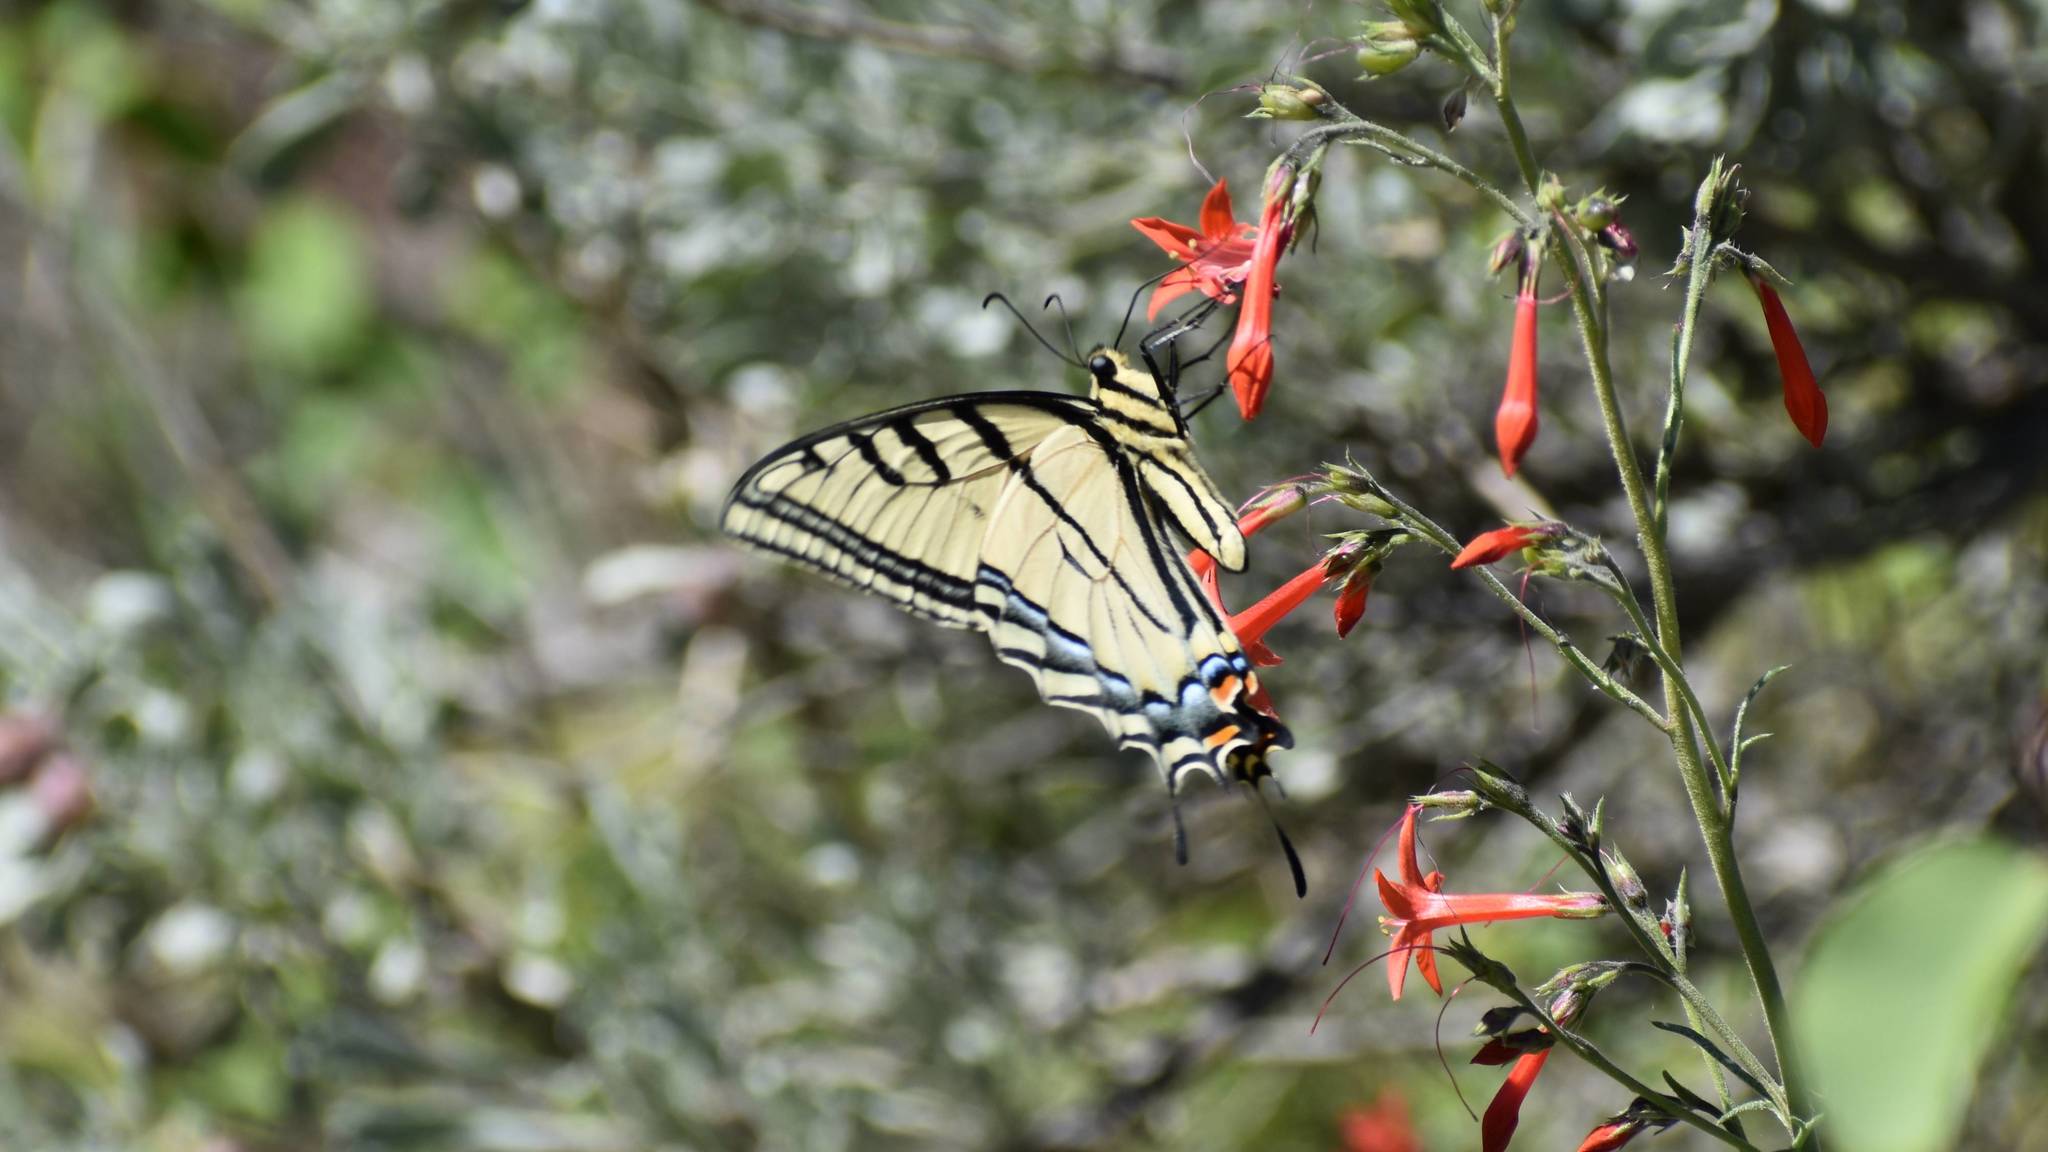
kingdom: Animalia
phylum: Arthropoda
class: Insecta
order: Lepidoptera
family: Papilionidae
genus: Papilio
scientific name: Papilio multicaudata
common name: Two-tailed tiger swallowtail
